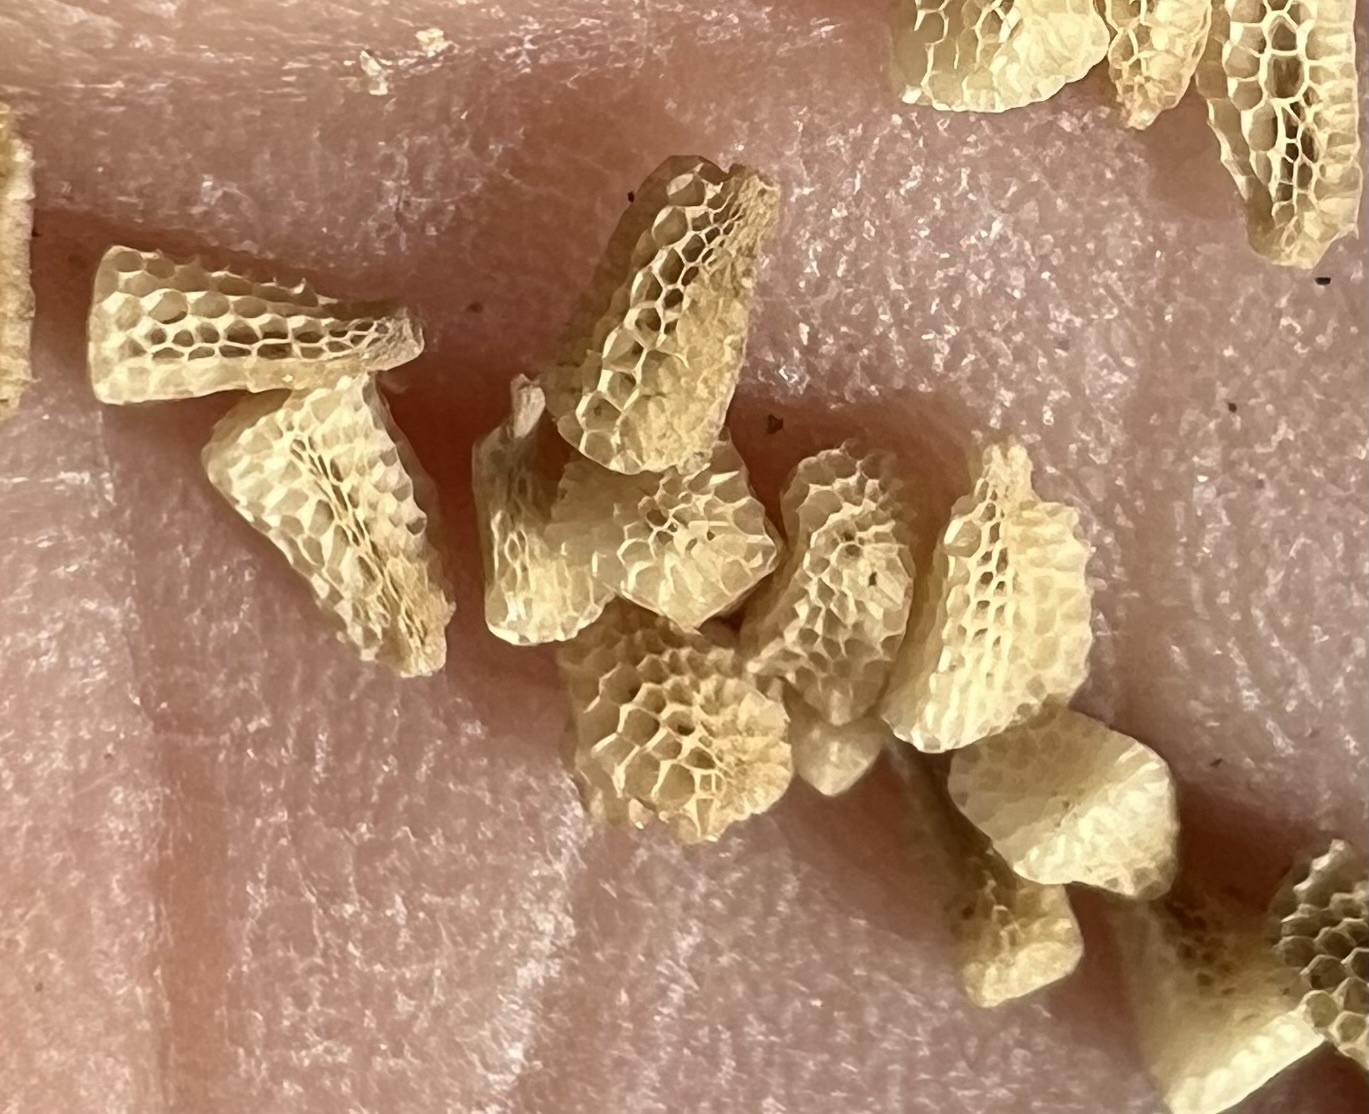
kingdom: Plantae
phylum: Tracheophyta
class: Magnoliopsida
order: Lamiales
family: Orobanchaceae
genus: Castilleja
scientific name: Castilleja chromosa
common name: Desert paintbrush
